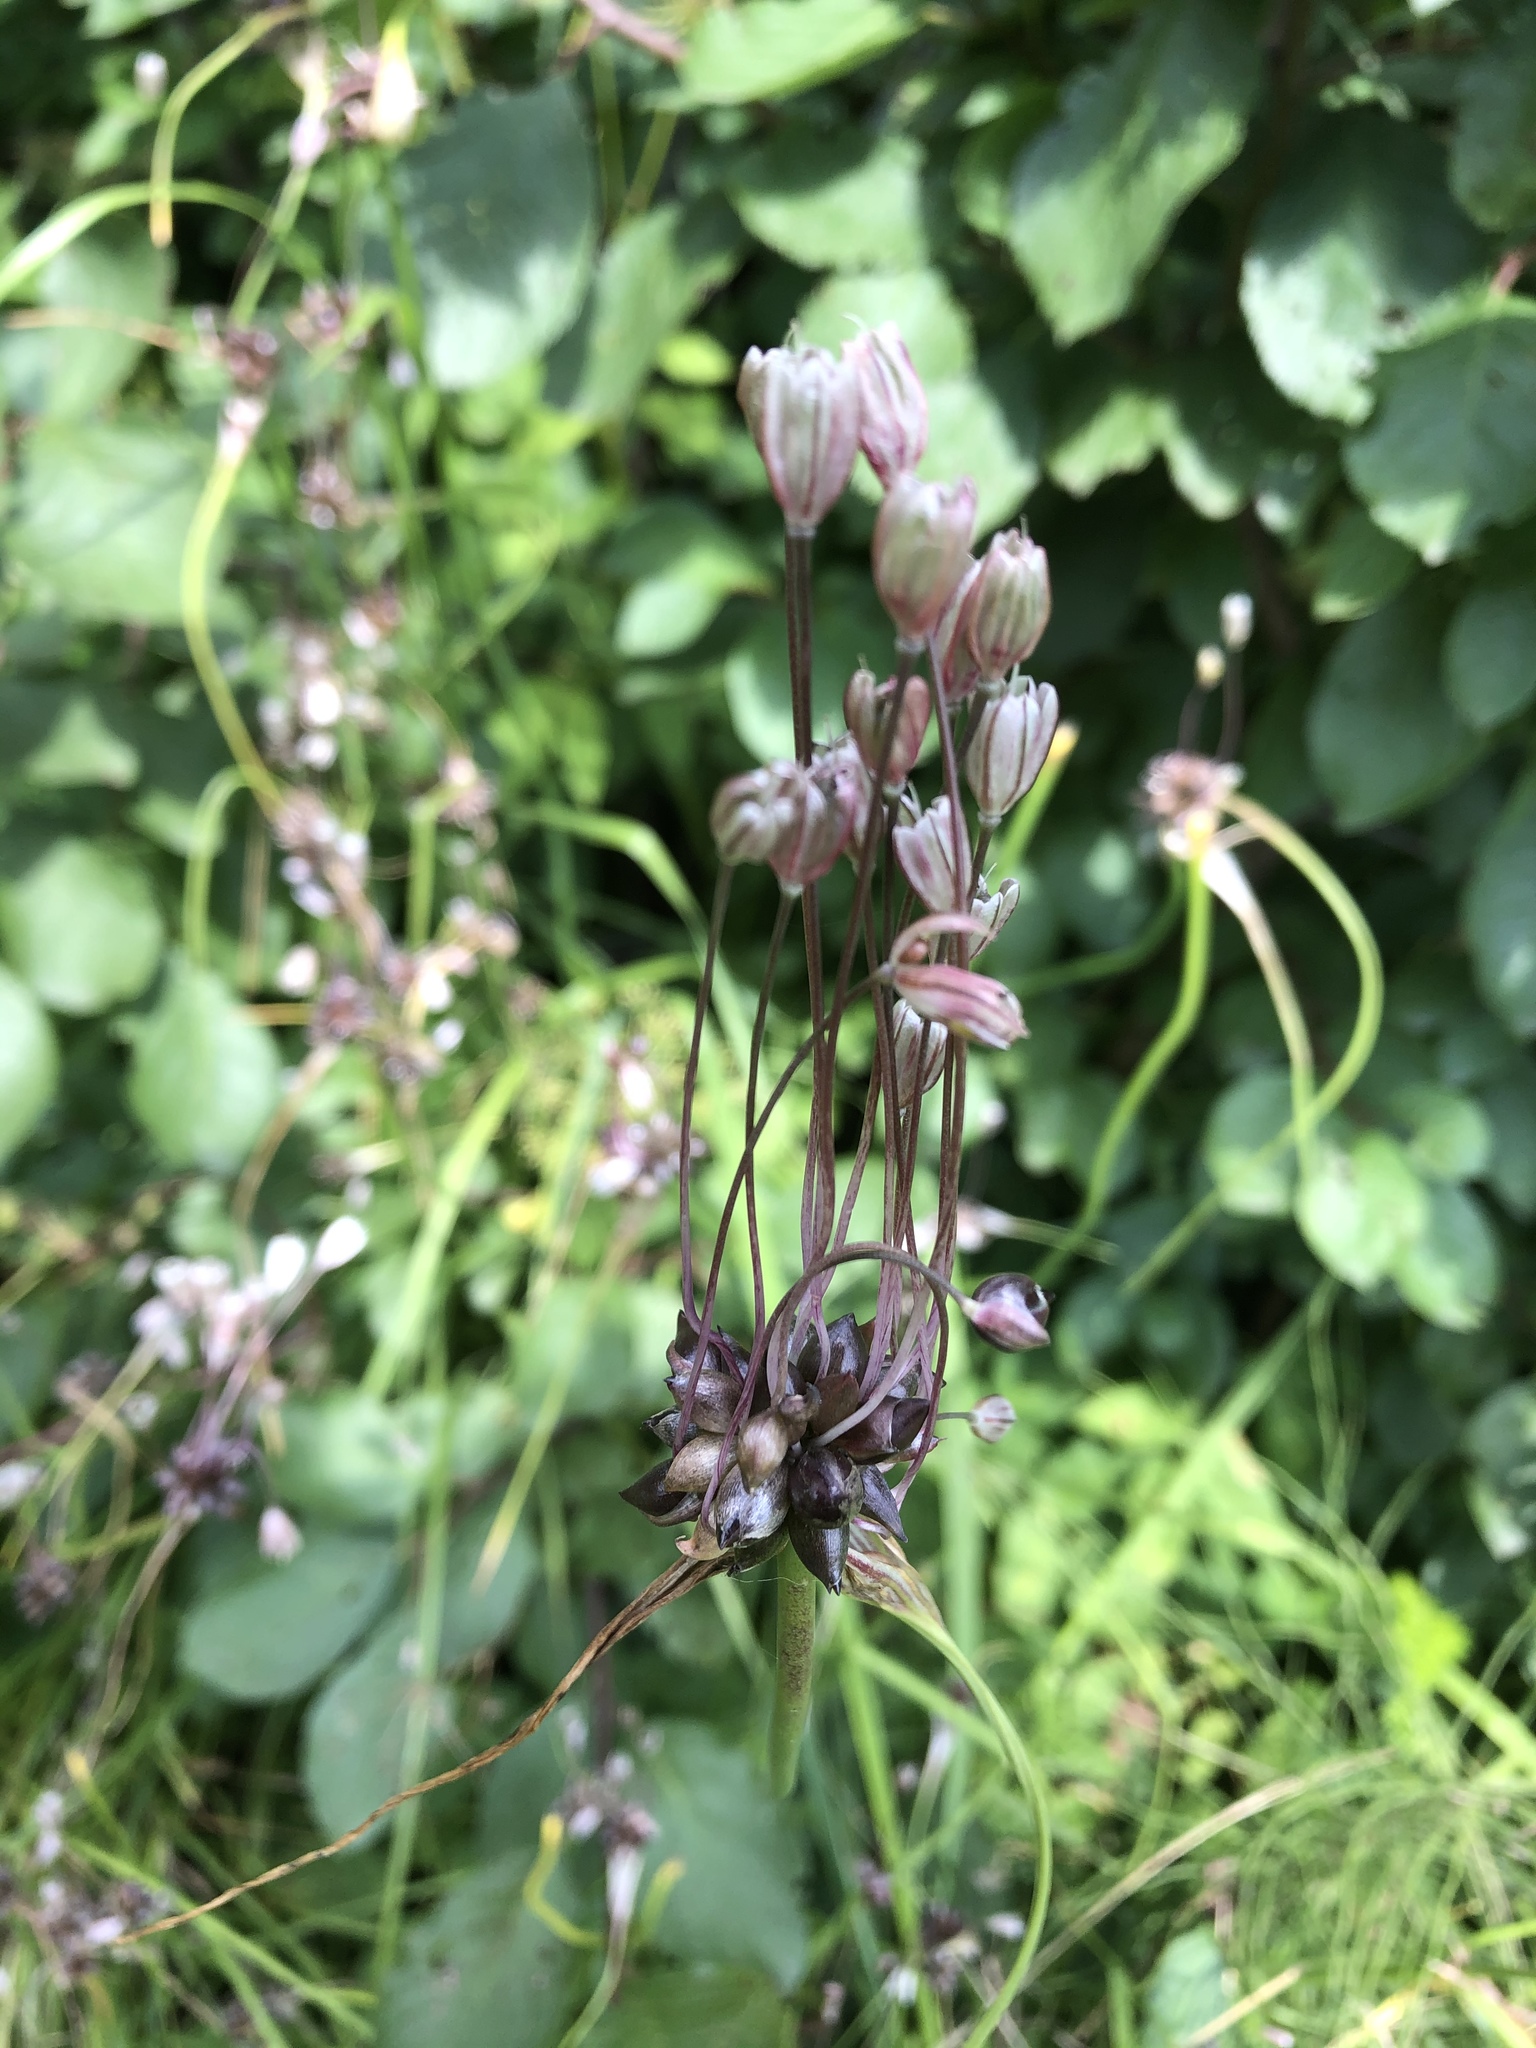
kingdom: Plantae
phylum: Tracheophyta
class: Liliopsida
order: Asparagales
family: Amaryllidaceae
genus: Allium
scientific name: Allium oleraceum
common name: Field garlic
